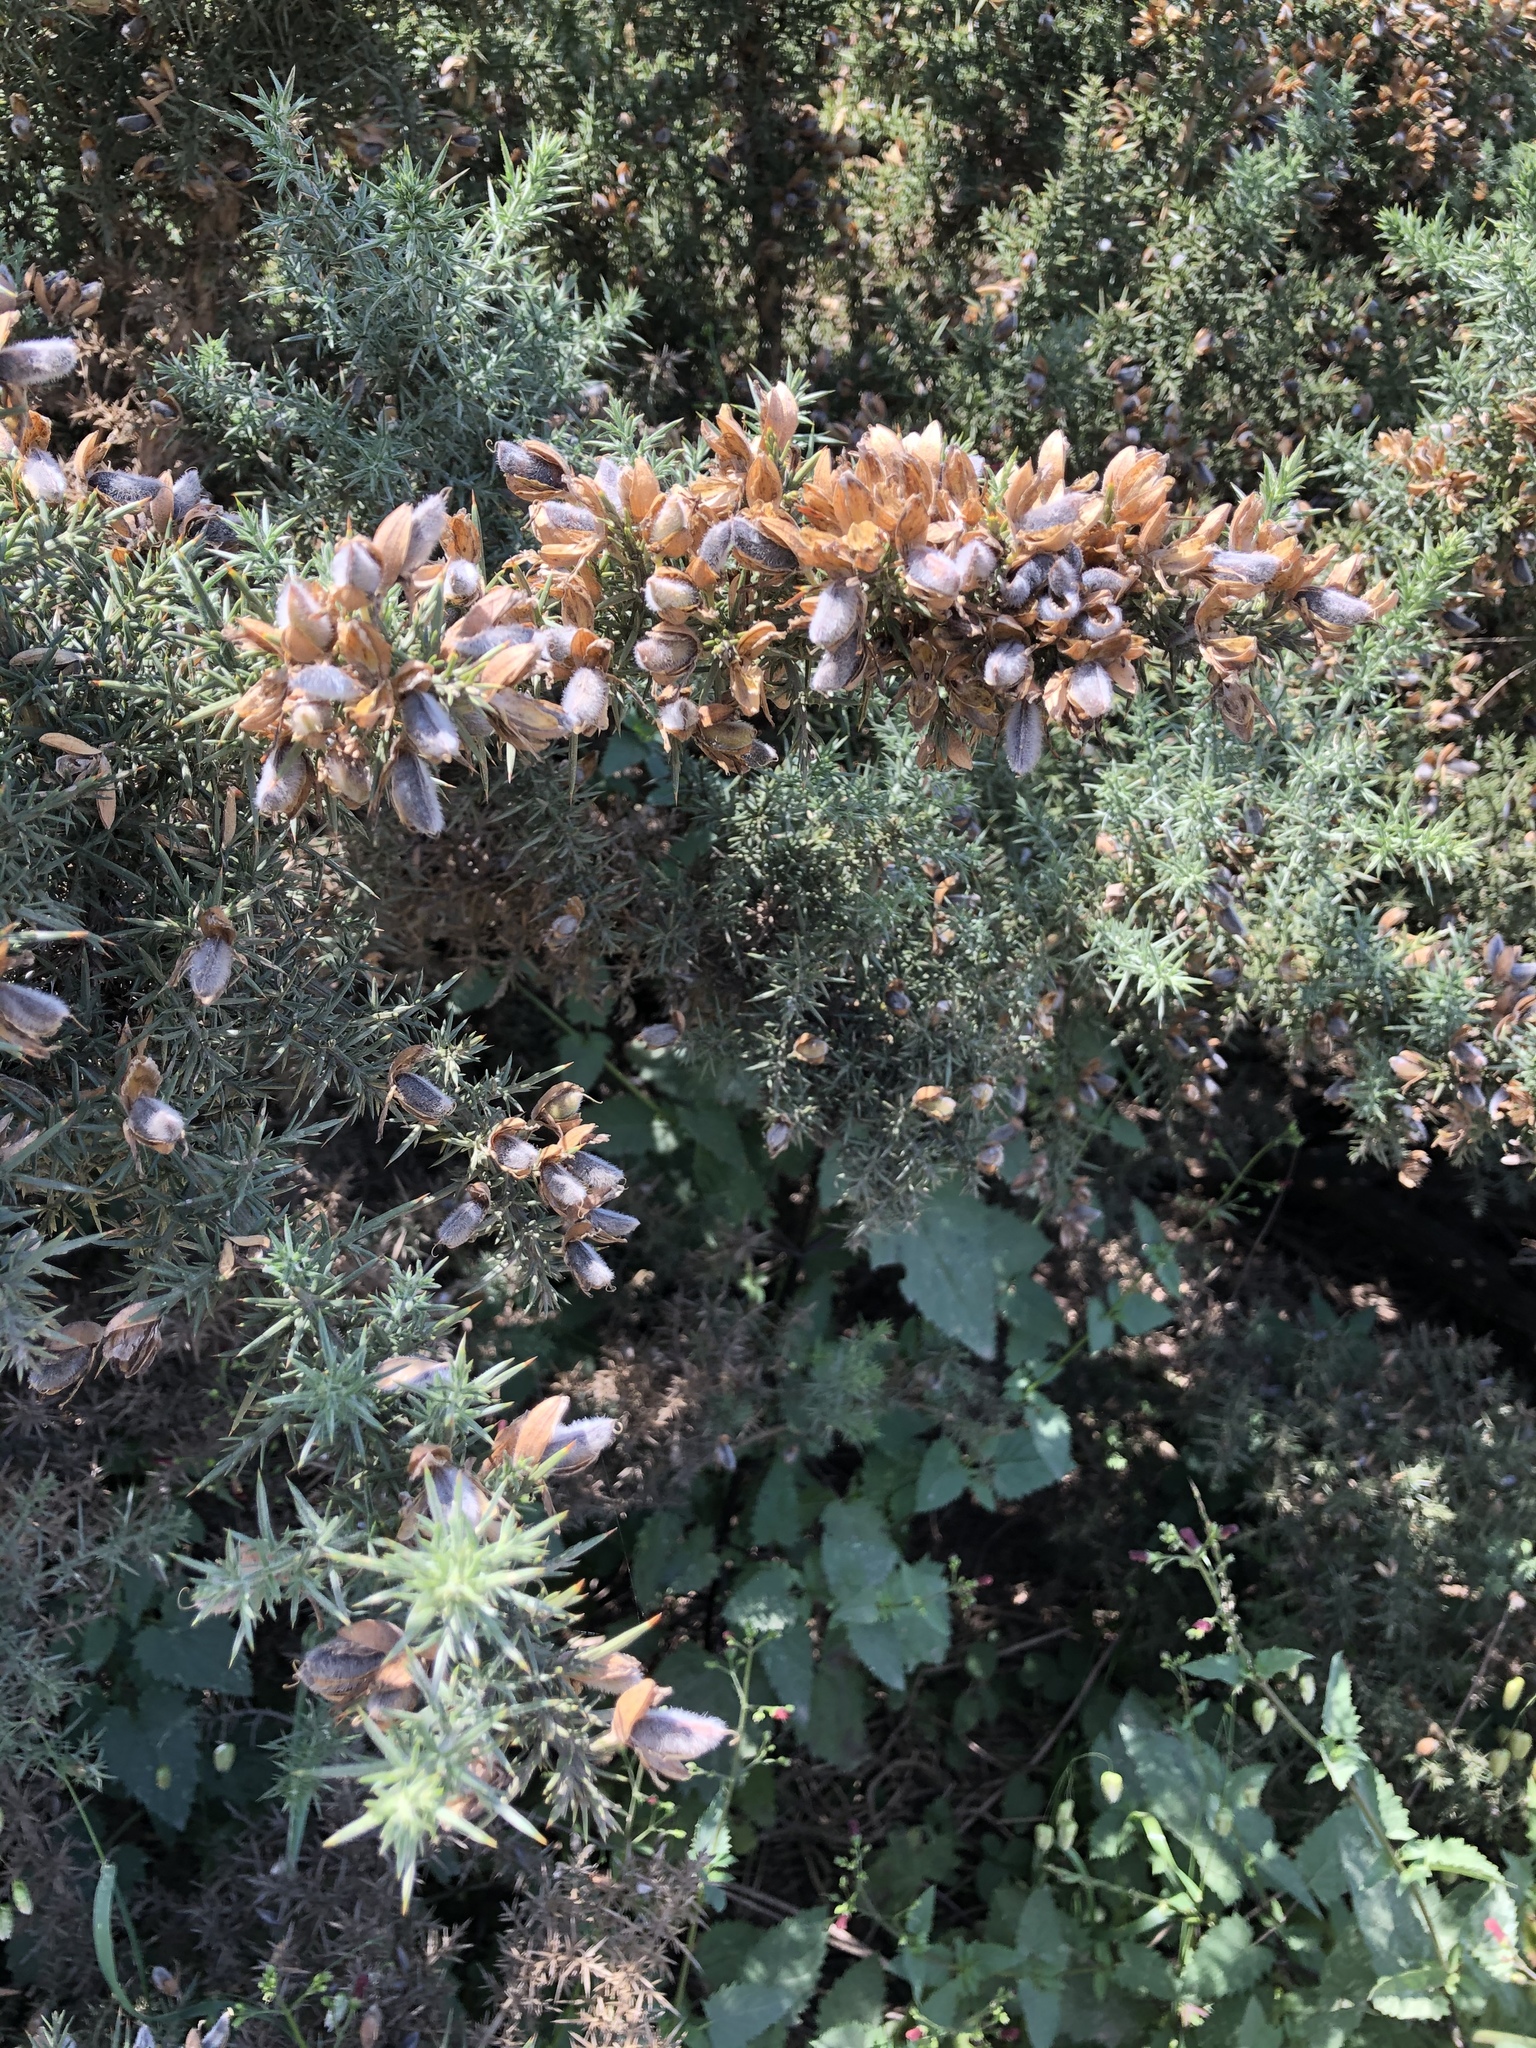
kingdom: Plantae
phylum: Tracheophyta
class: Magnoliopsida
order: Fabales
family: Fabaceae
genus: Ulex
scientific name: Ulex europaeus
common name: Common gorse
